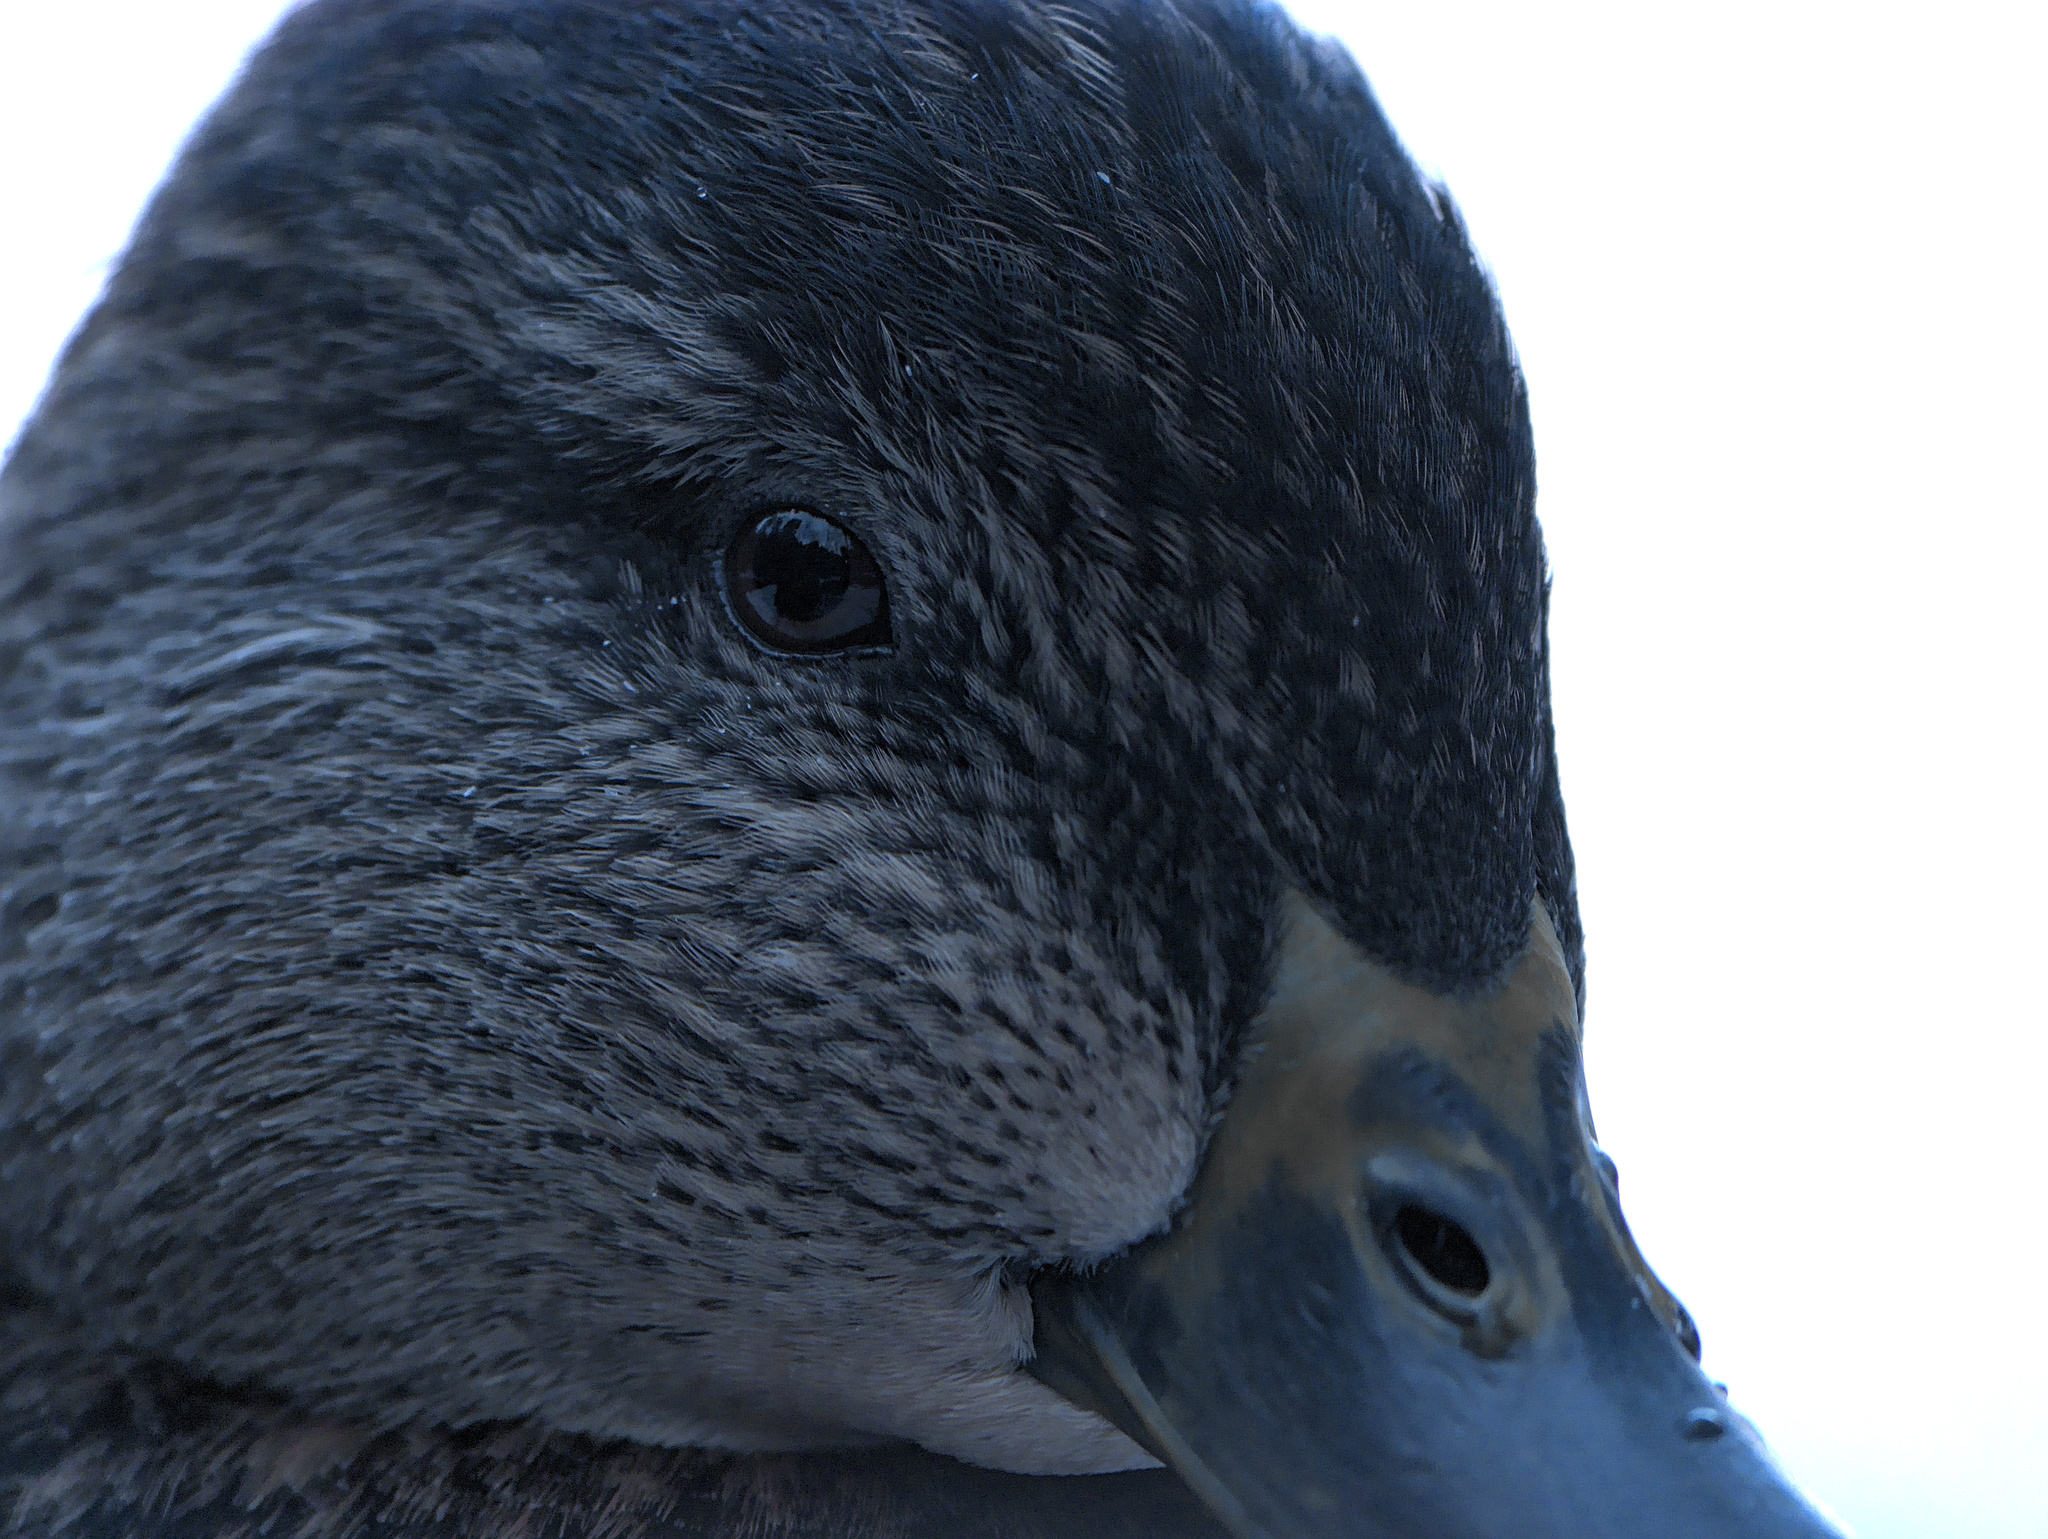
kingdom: Animalia
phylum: Chordata
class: Aves
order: Anseriformes
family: Anatidae
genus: Anas
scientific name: Anas rubripes
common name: American black duck
